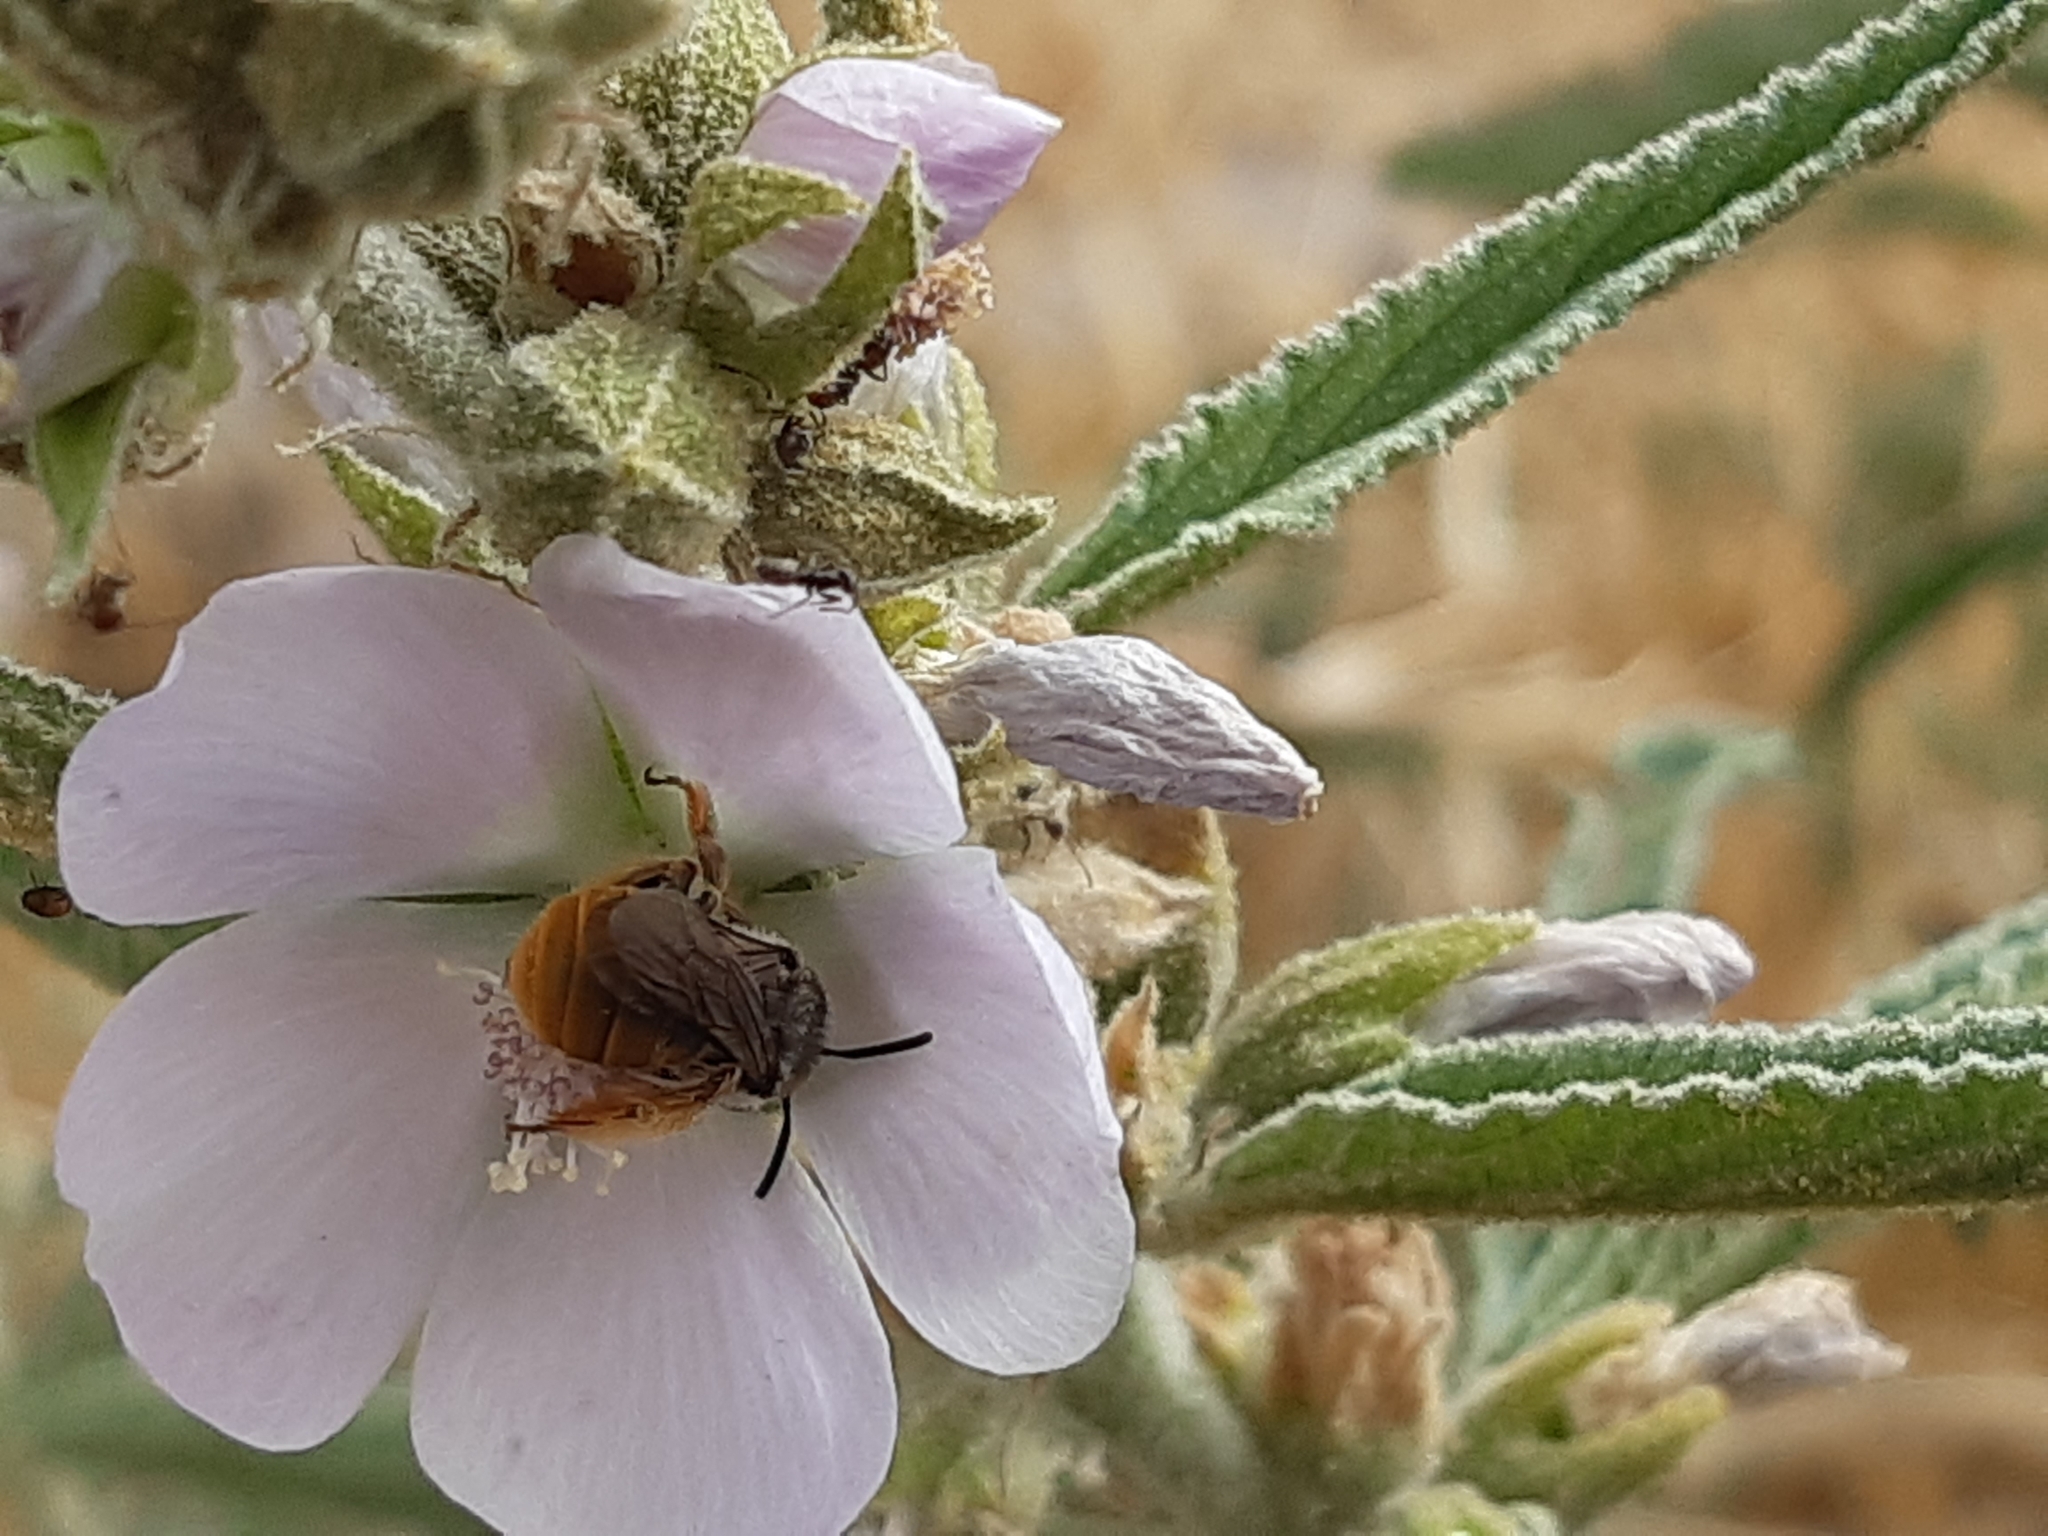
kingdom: Animalia
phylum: Arthropoda
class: Insecta
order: Hymenoptera
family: Apidae
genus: Melissoptila
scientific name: Melissoptila otomita
